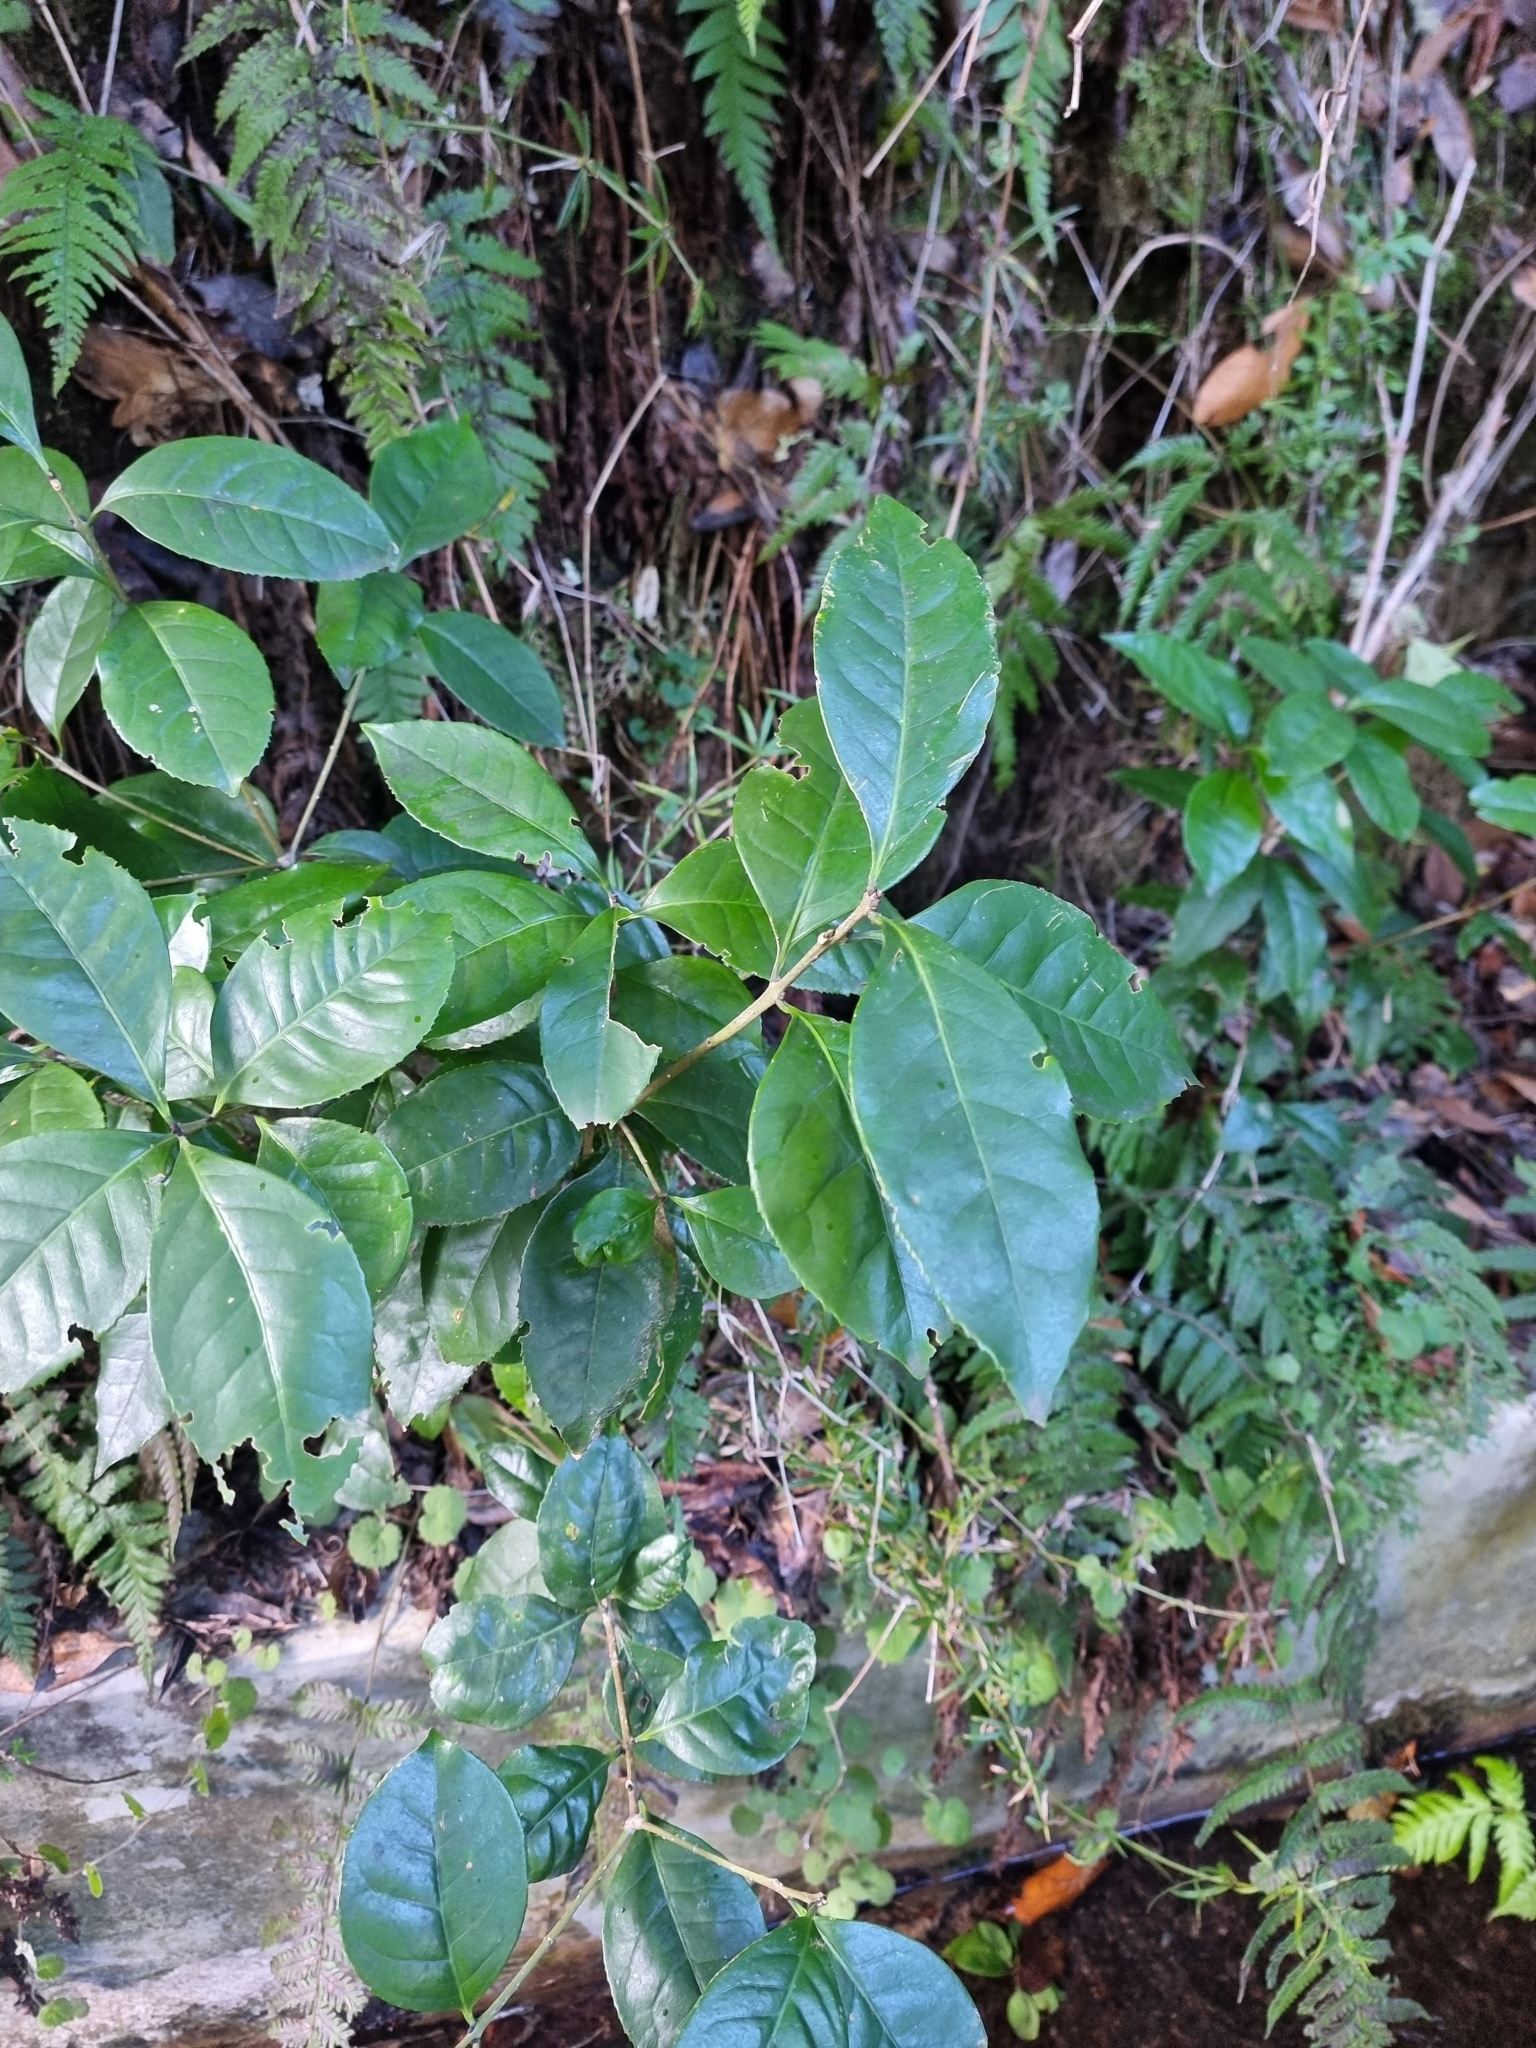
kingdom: Plantae
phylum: Tracheophyta
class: Magnoliopsida
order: Lamiales
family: Oleaceae
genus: Picconia
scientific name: Picconia excelsa
